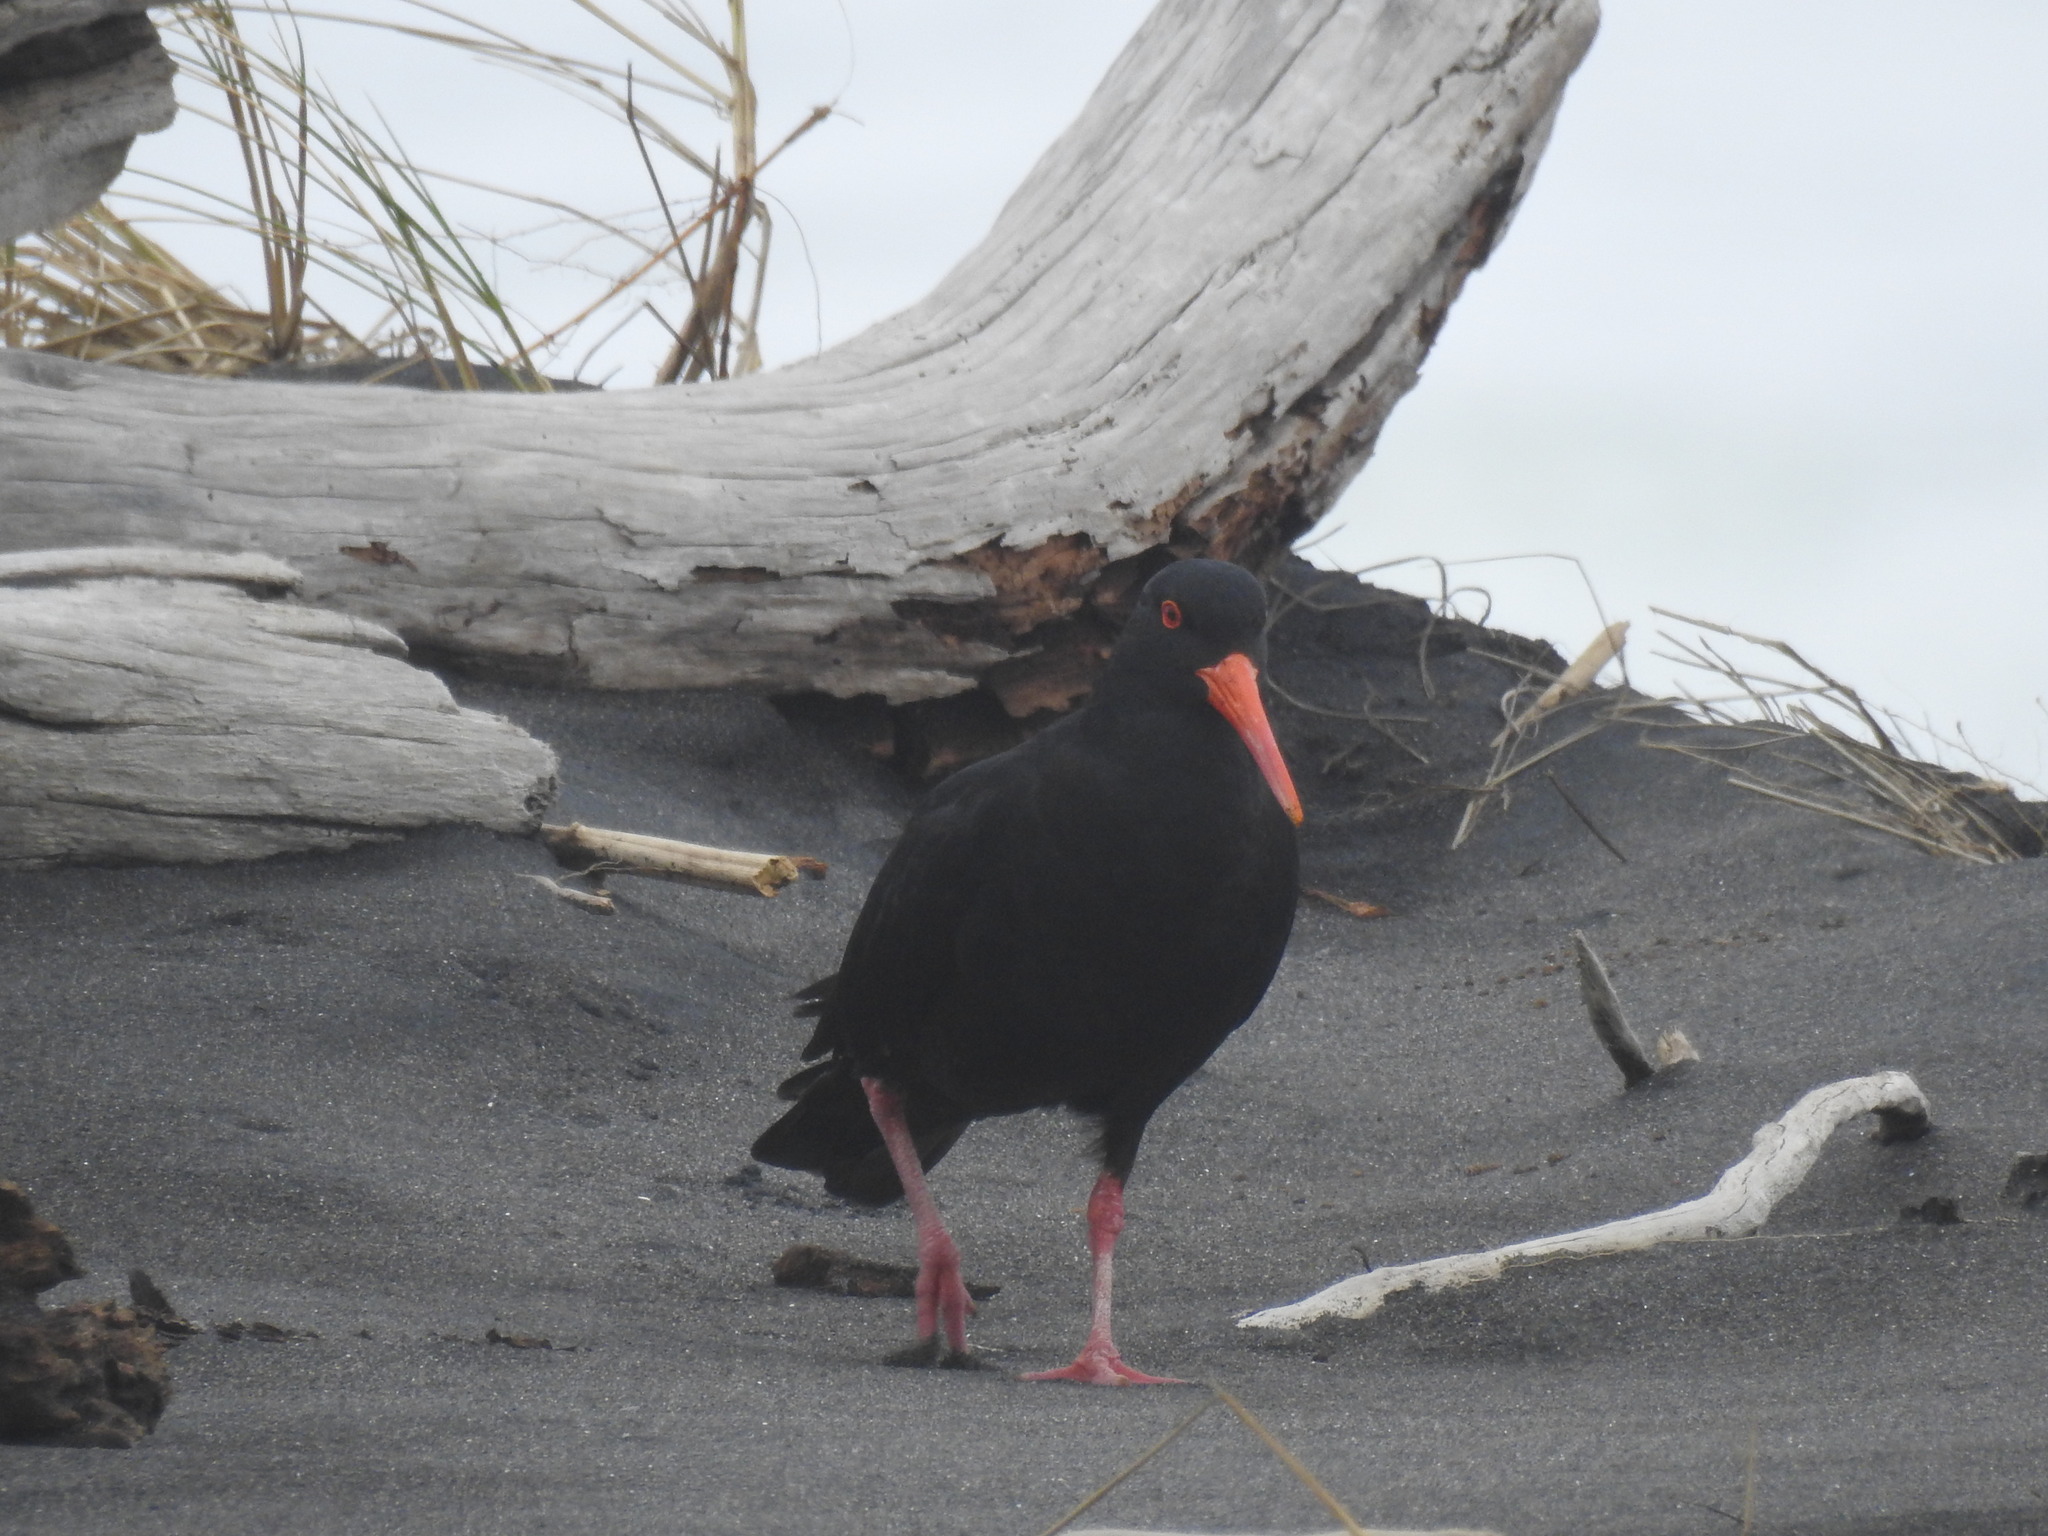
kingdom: Animalia
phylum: Chordata
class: Aves
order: Charadriiformes
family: Haematopodidae
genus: Haematopus
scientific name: Haematopus unicolor
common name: Variable oystercatcher
